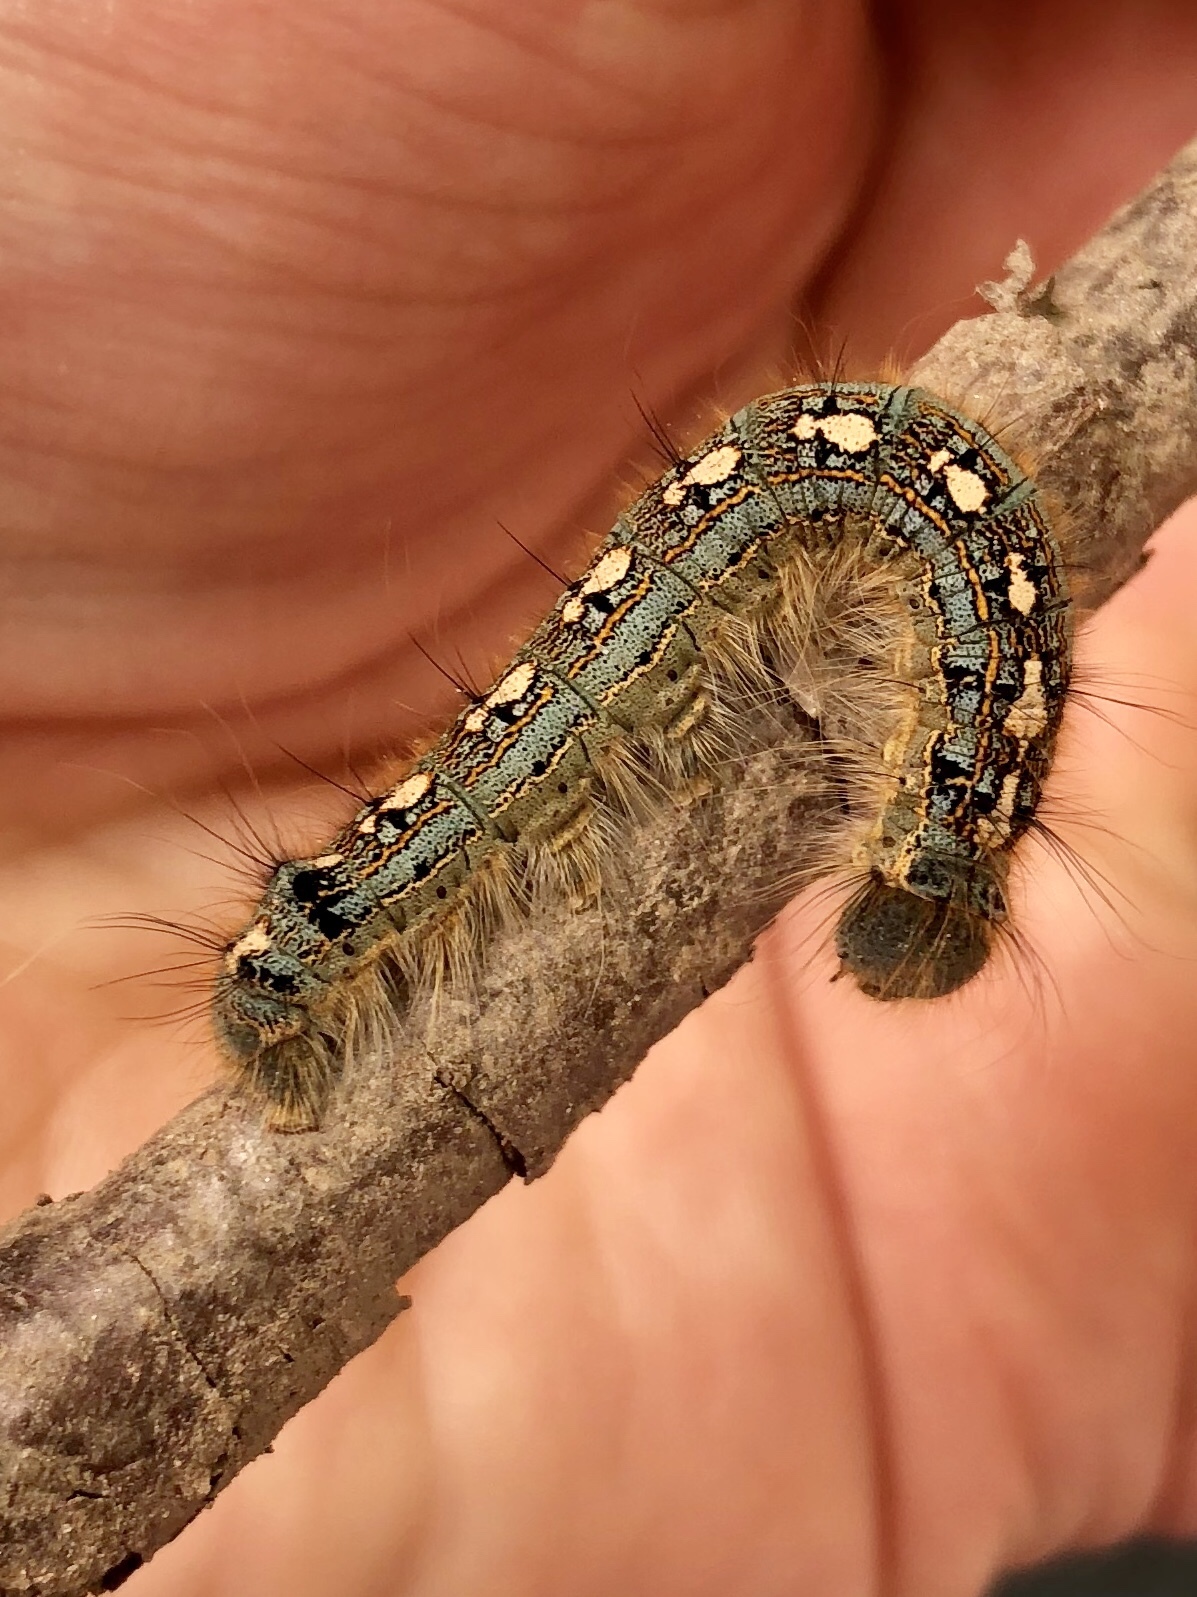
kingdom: Animalia
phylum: Arthropoda
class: Insecta
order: Lepidoptera
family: Lasiocampidae
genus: Malacosoma
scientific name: Malacosoma disstria
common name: Forest tent caterpillar
